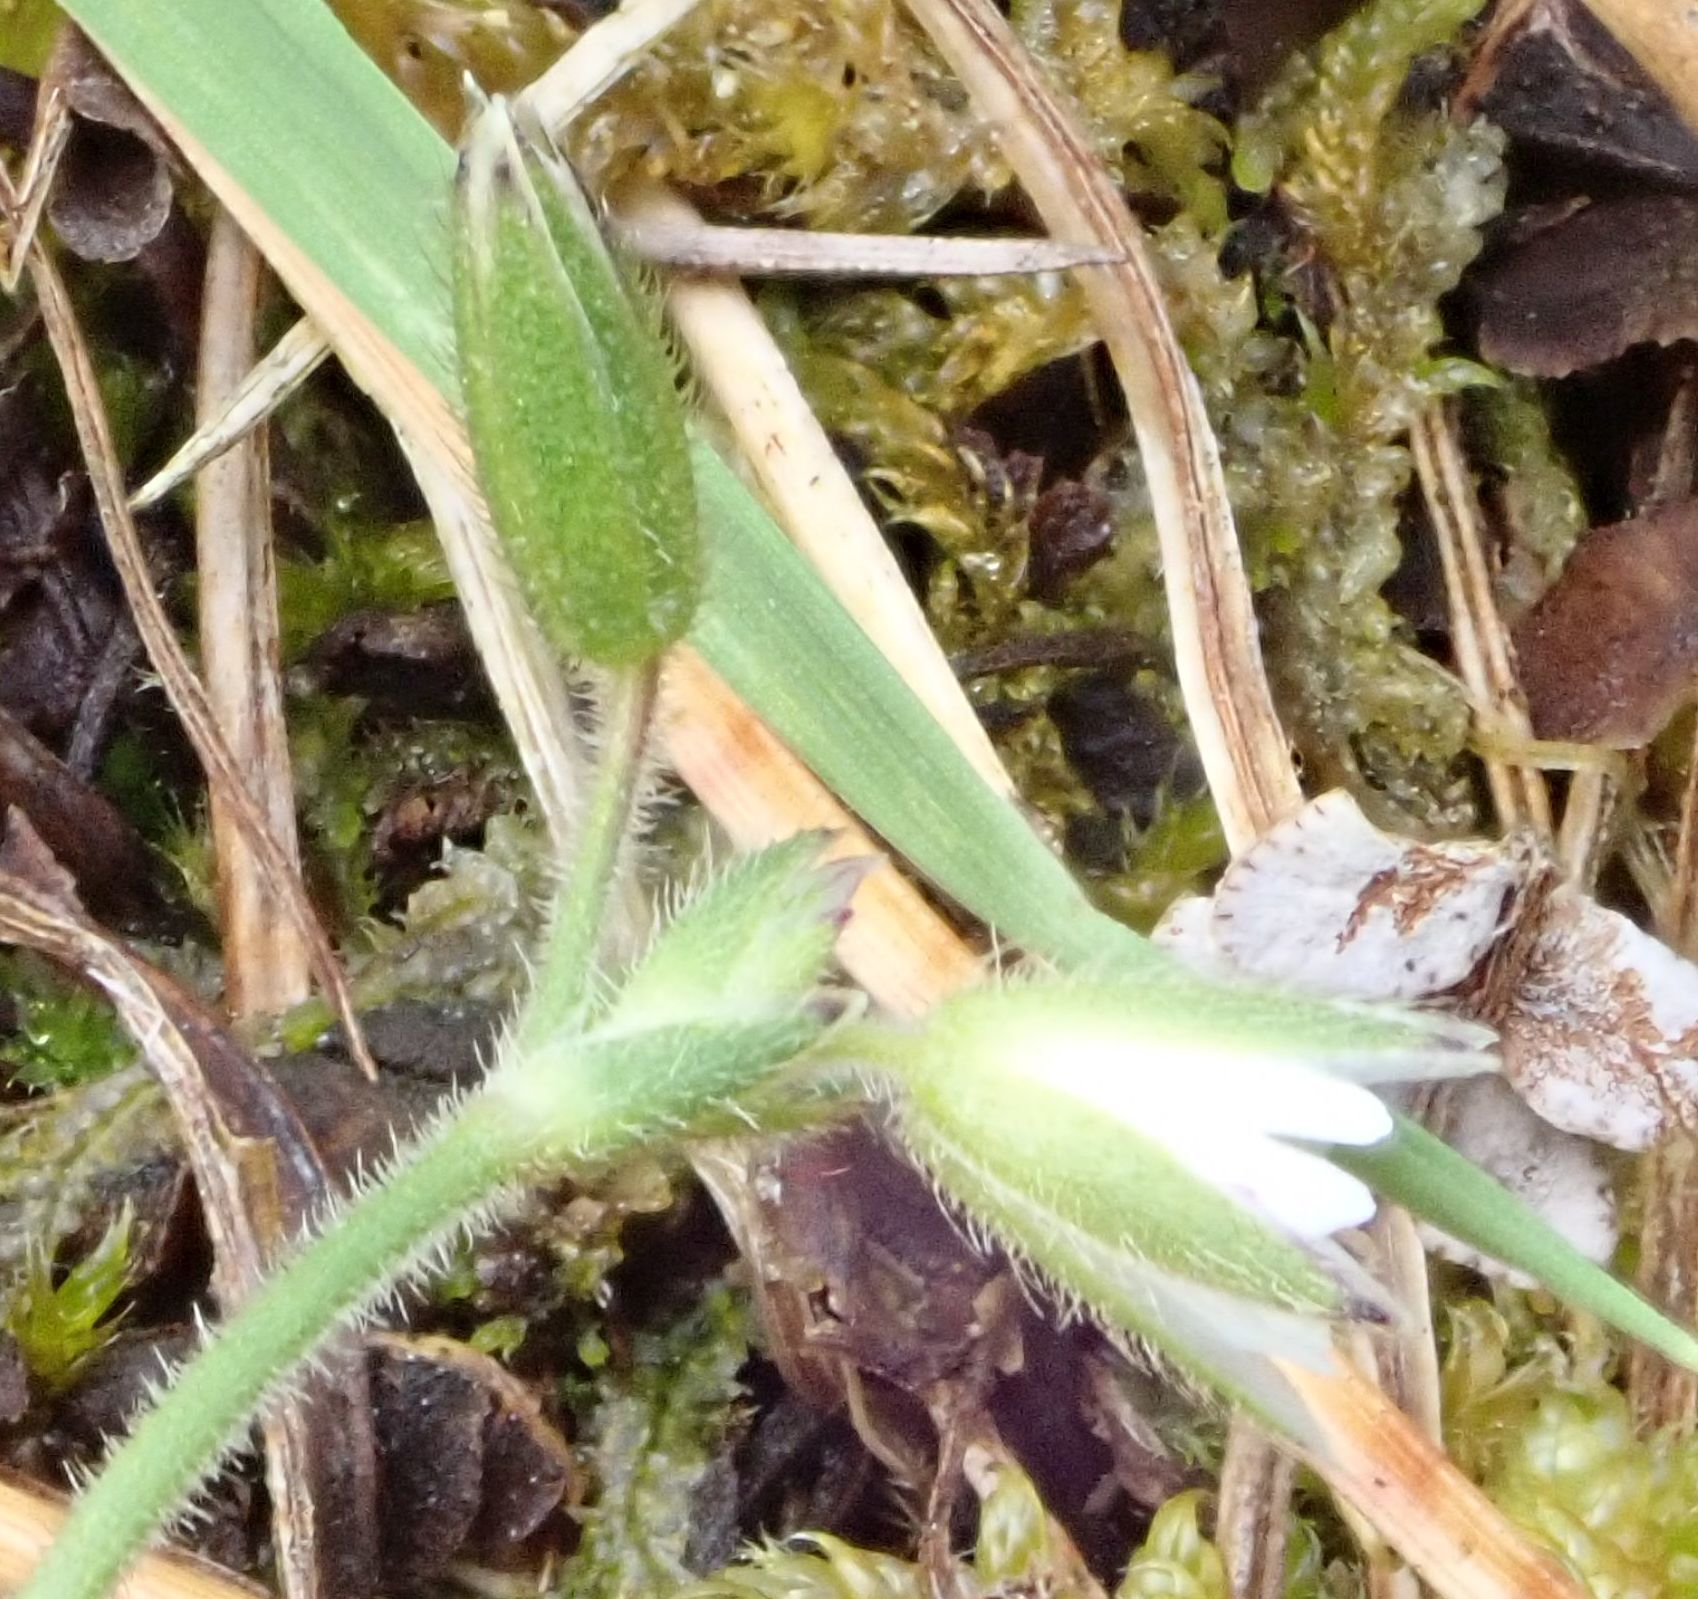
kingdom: Plantae
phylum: Tracheophyta
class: Magnoliopsida
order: Caryophyllales
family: Caryophyllaceae
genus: Cerastium
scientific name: Cerastium fontanum
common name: Common mouse-ear
